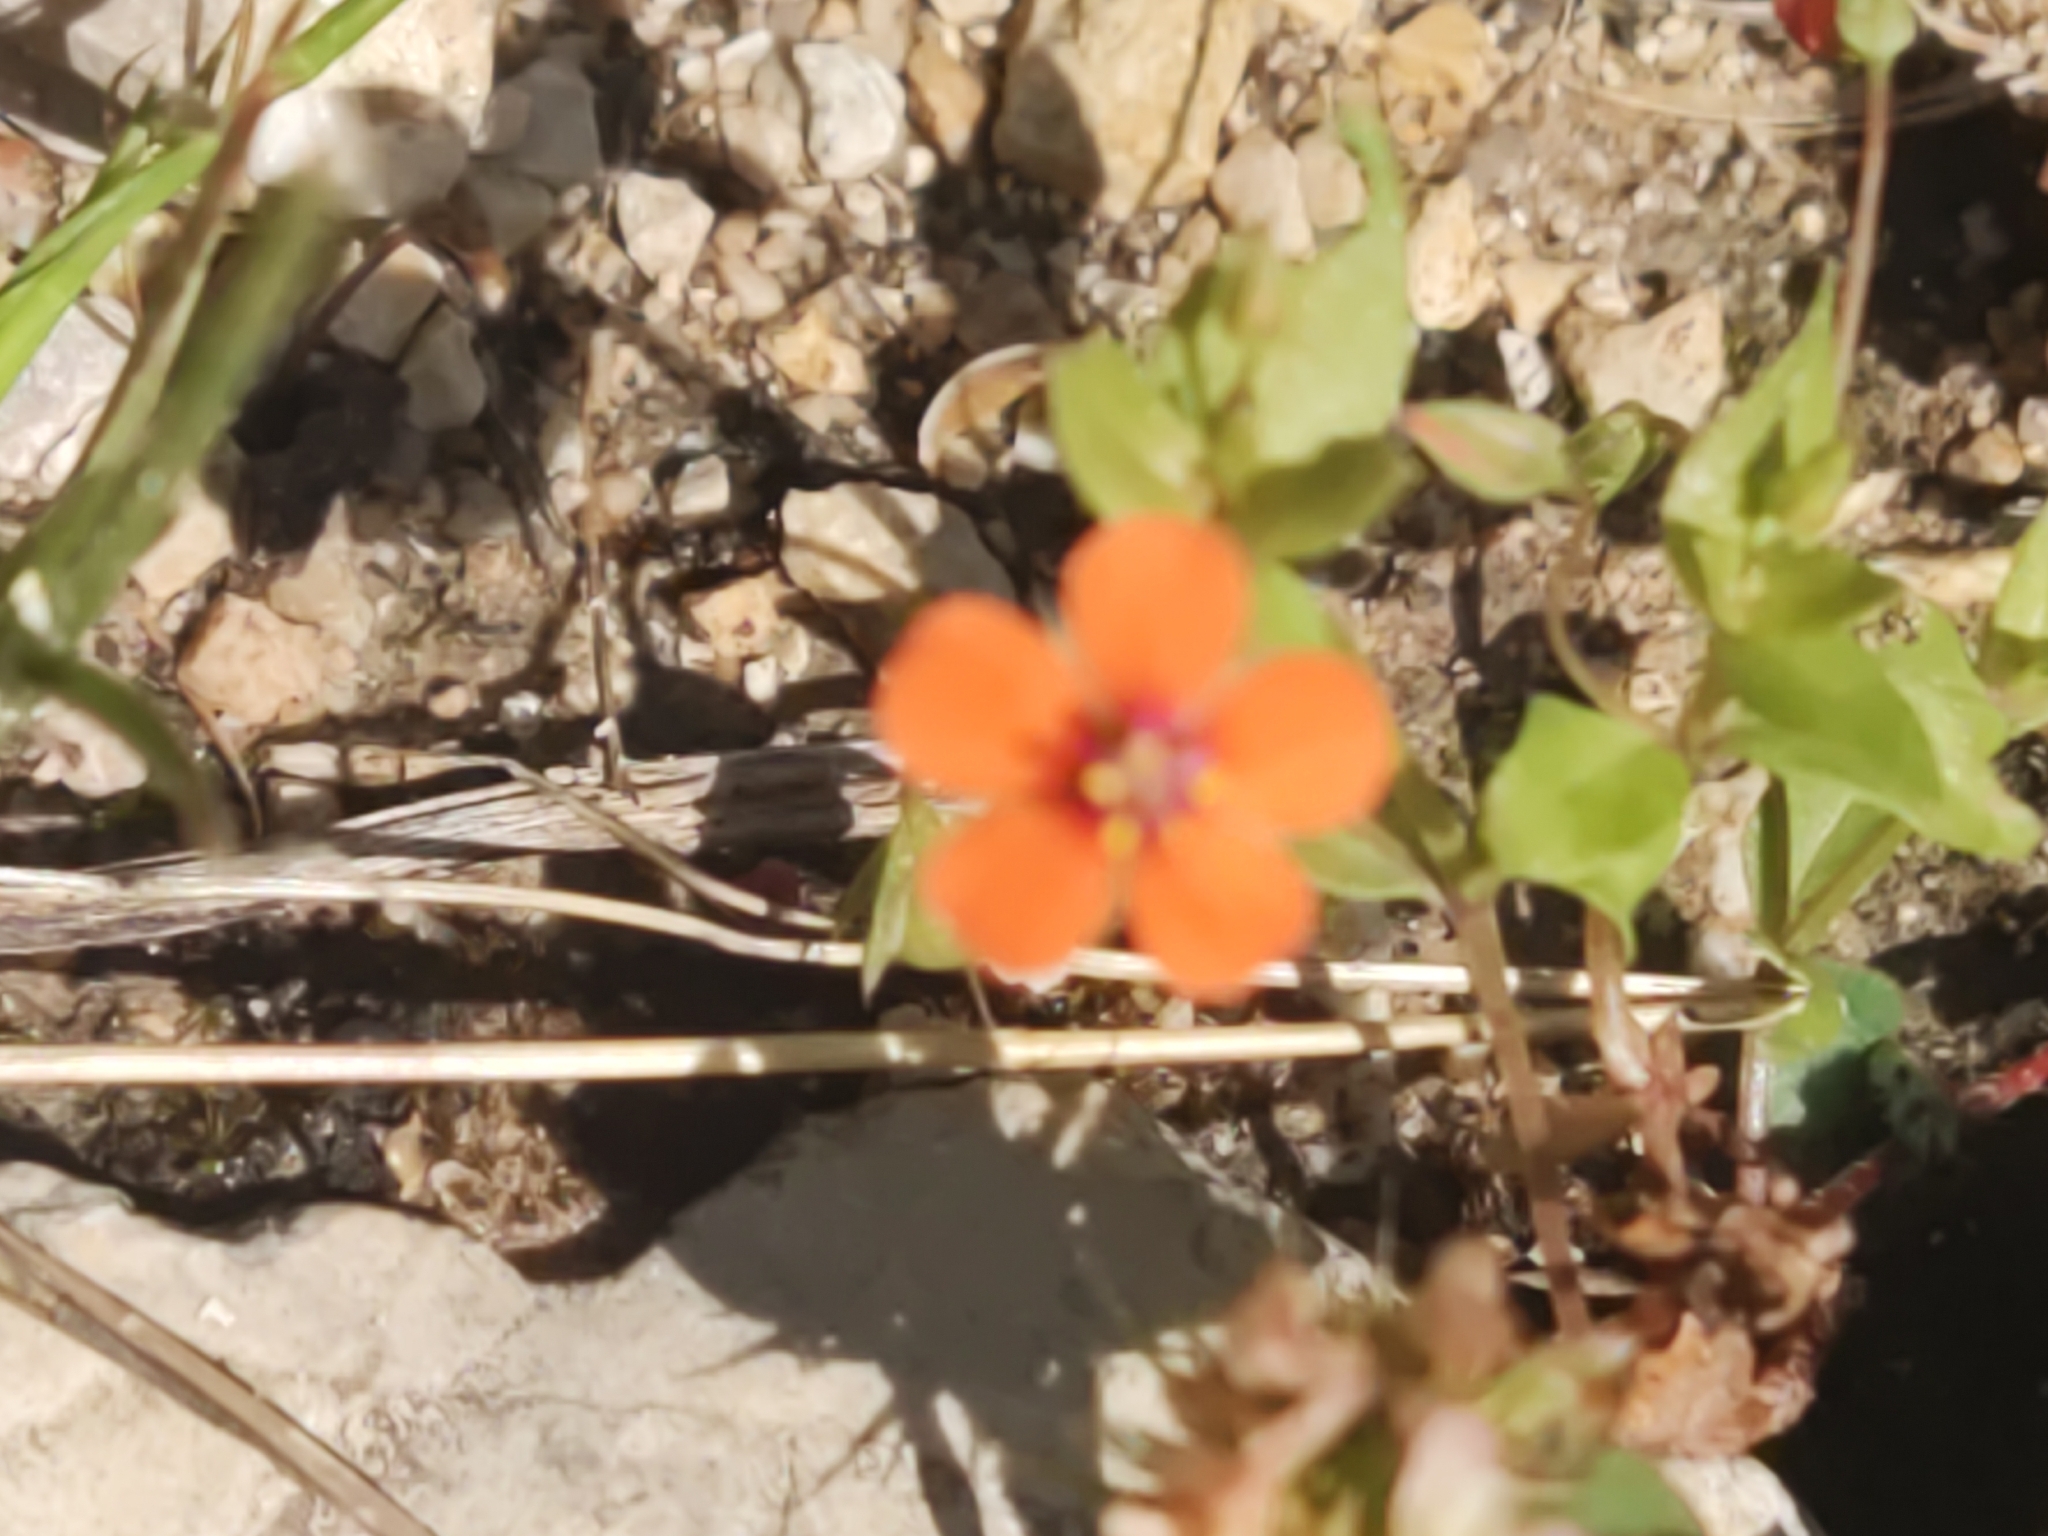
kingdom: Plantae
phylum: Tracheophyta
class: Magnoliopsida
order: Ericales
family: Primulaceae
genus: Lysimachia
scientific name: Lysimachia arvensis
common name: Scarlet pimpernel
